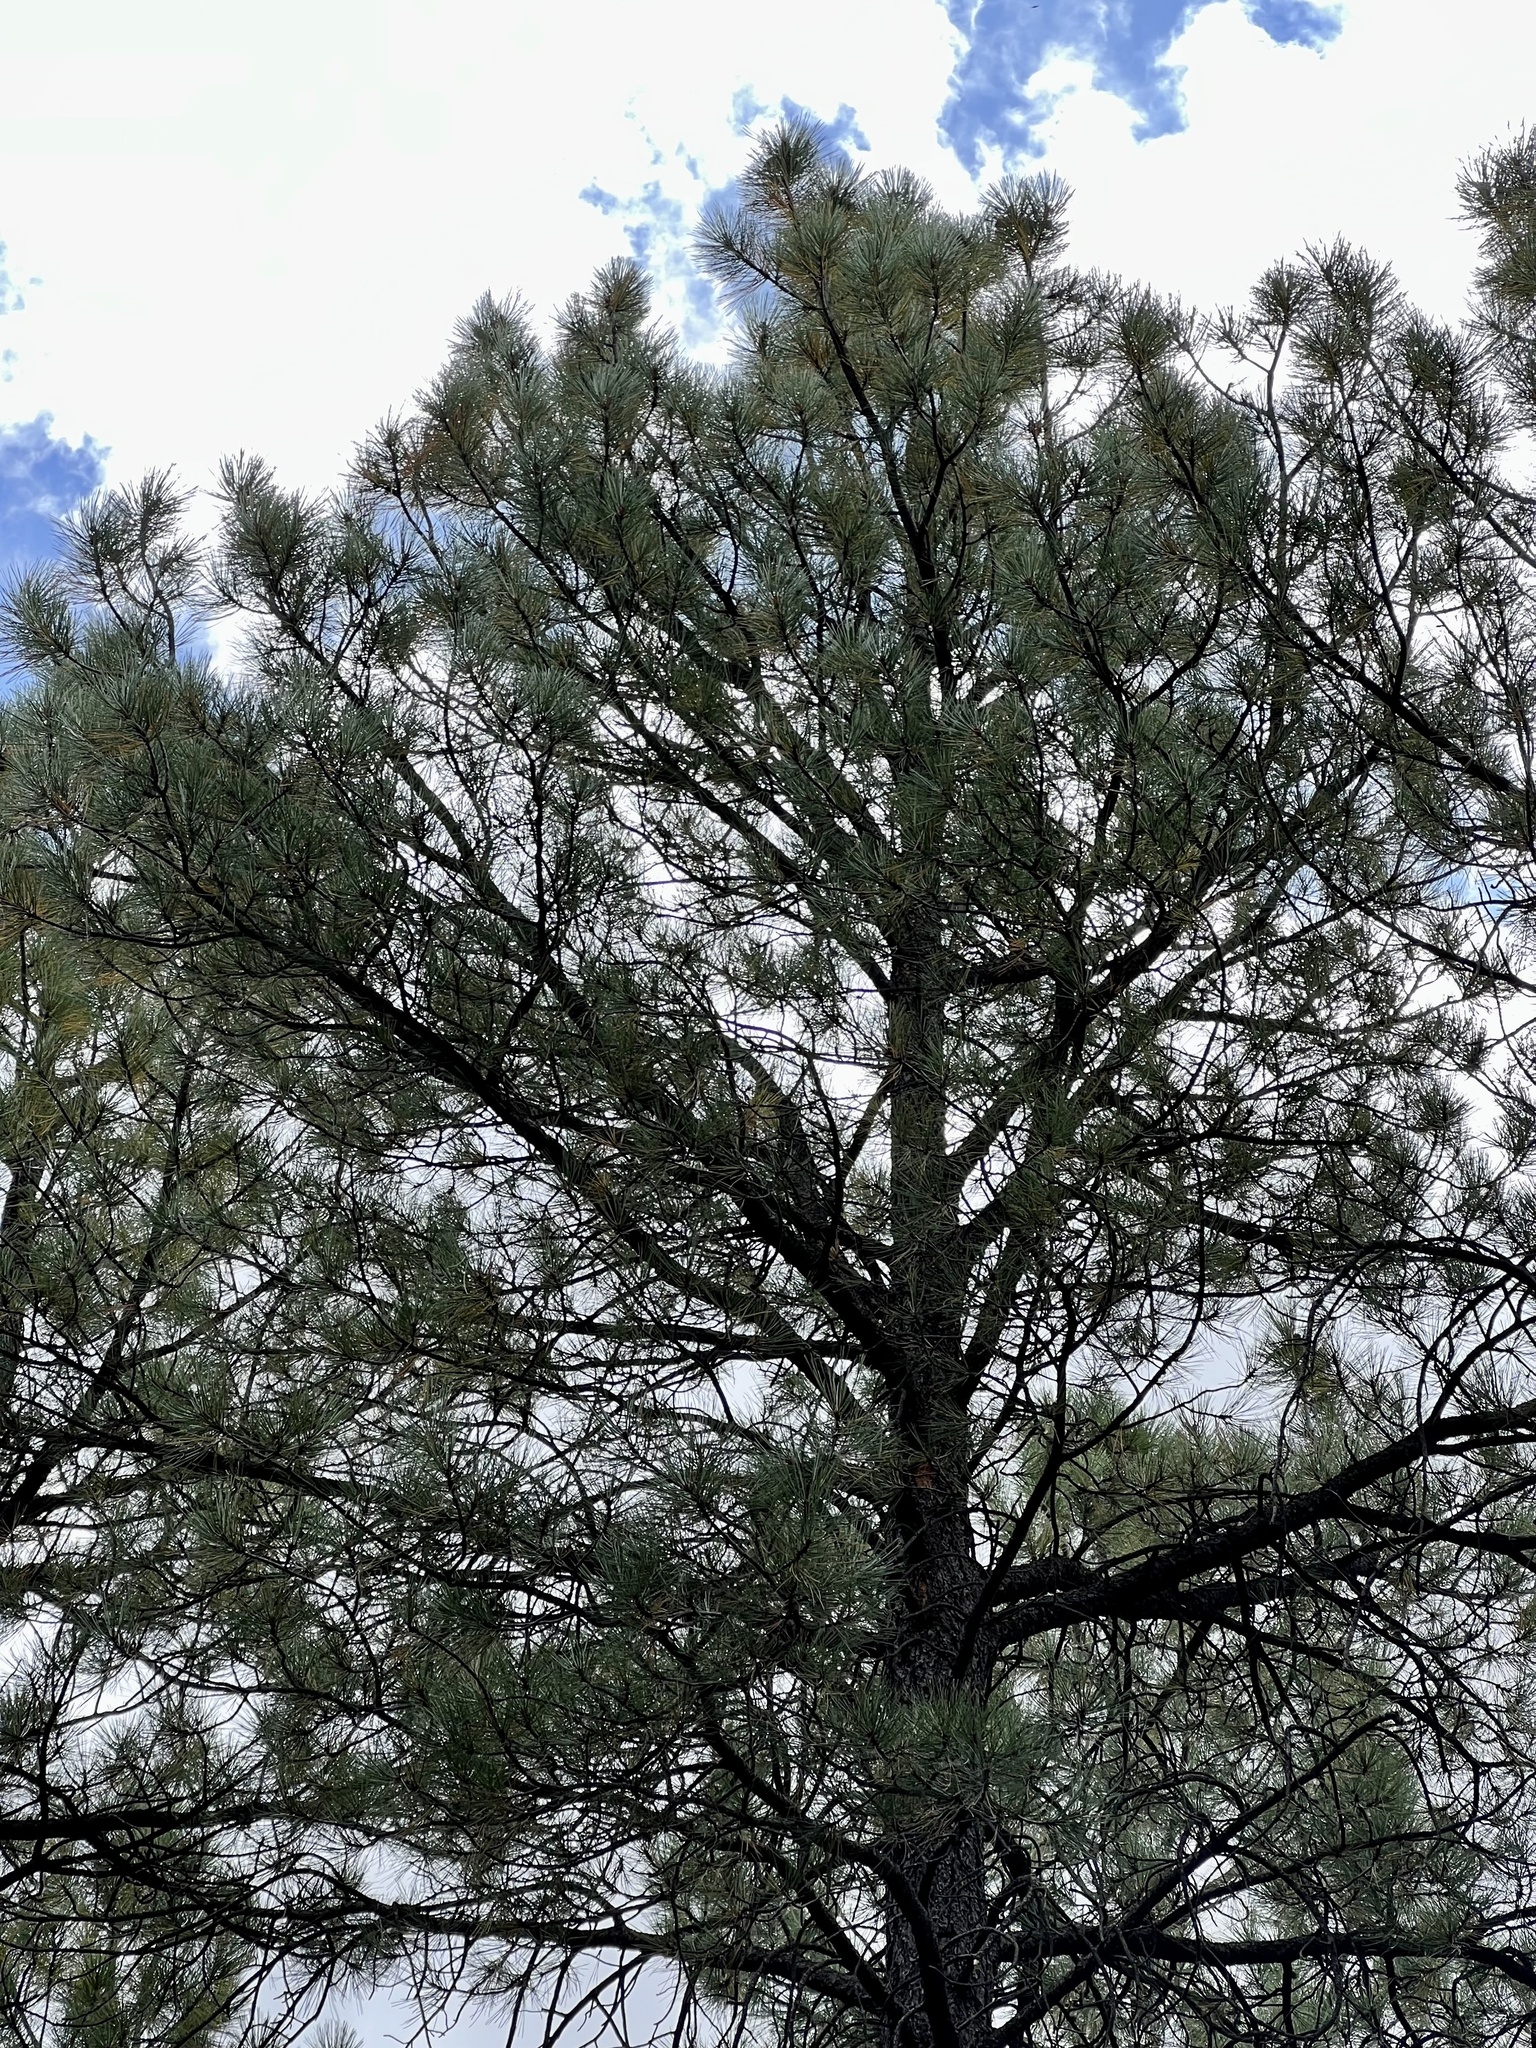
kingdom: Plantae
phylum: Tracheophyta
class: Pinopsida
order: Pinales
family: Pinaceae
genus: Pinus
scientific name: Pinus ponderosa
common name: Western yellow-pine
